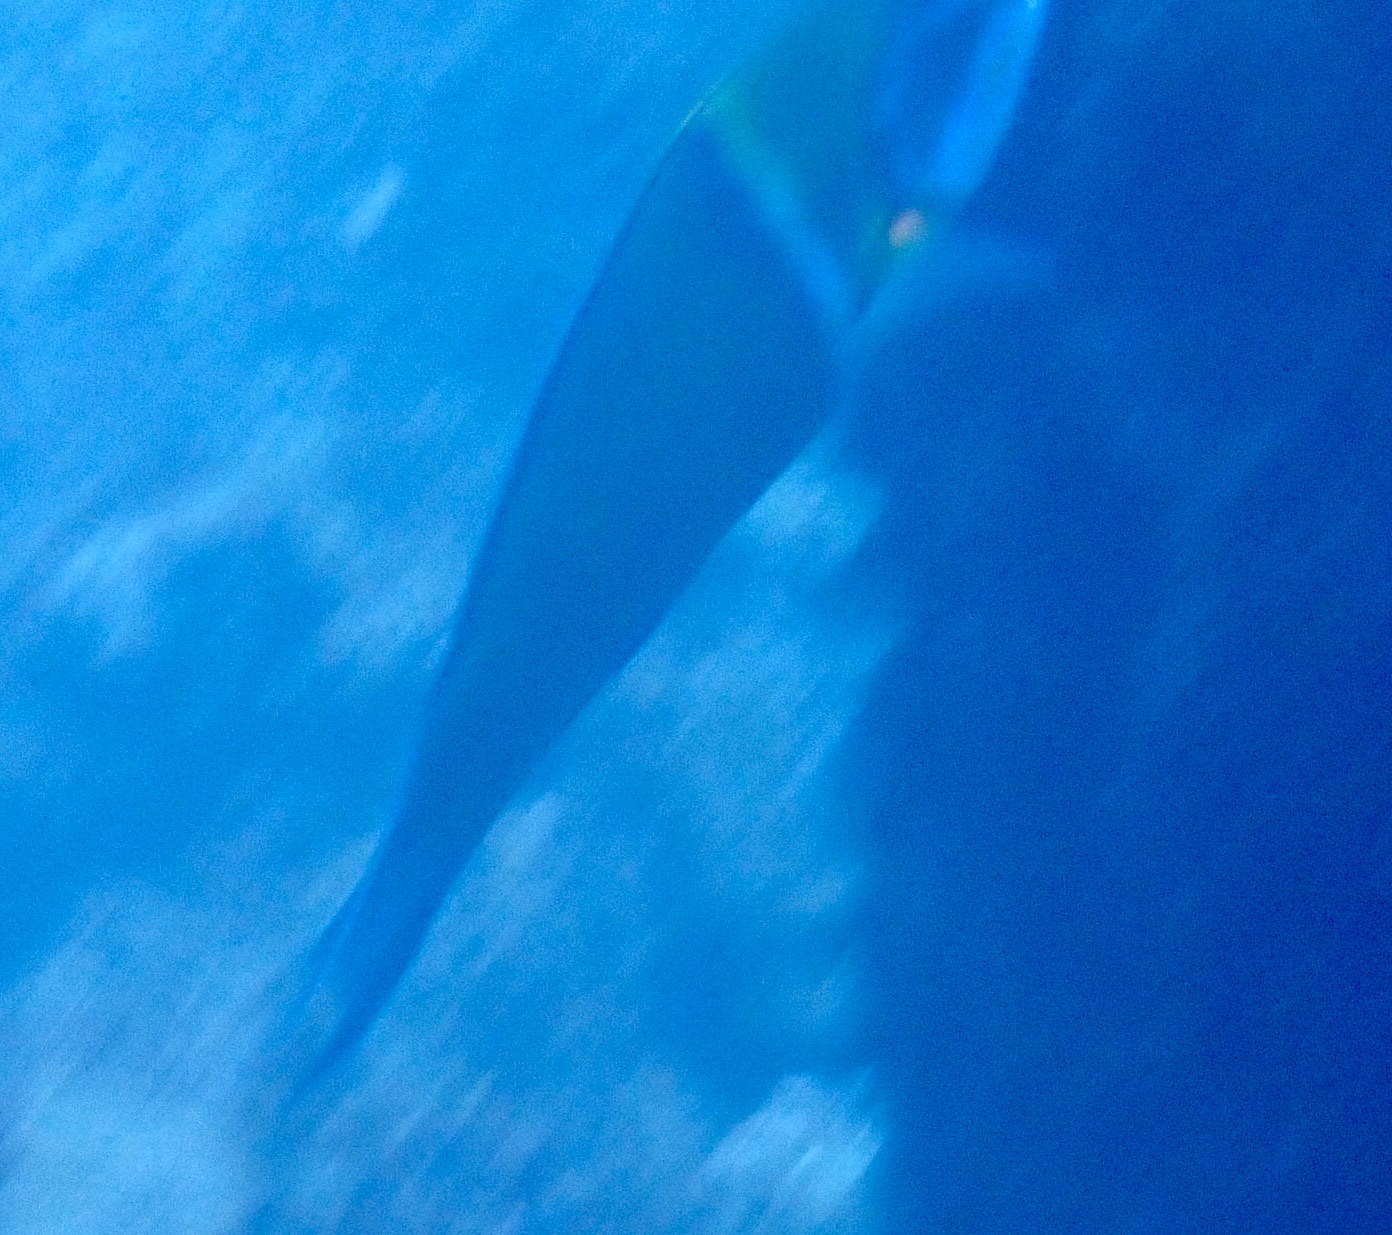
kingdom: Animalia
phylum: Chordata
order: Perciformes
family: Labridae
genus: Thalassoma
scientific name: Thalassoma pavo
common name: Ornate wrasse
